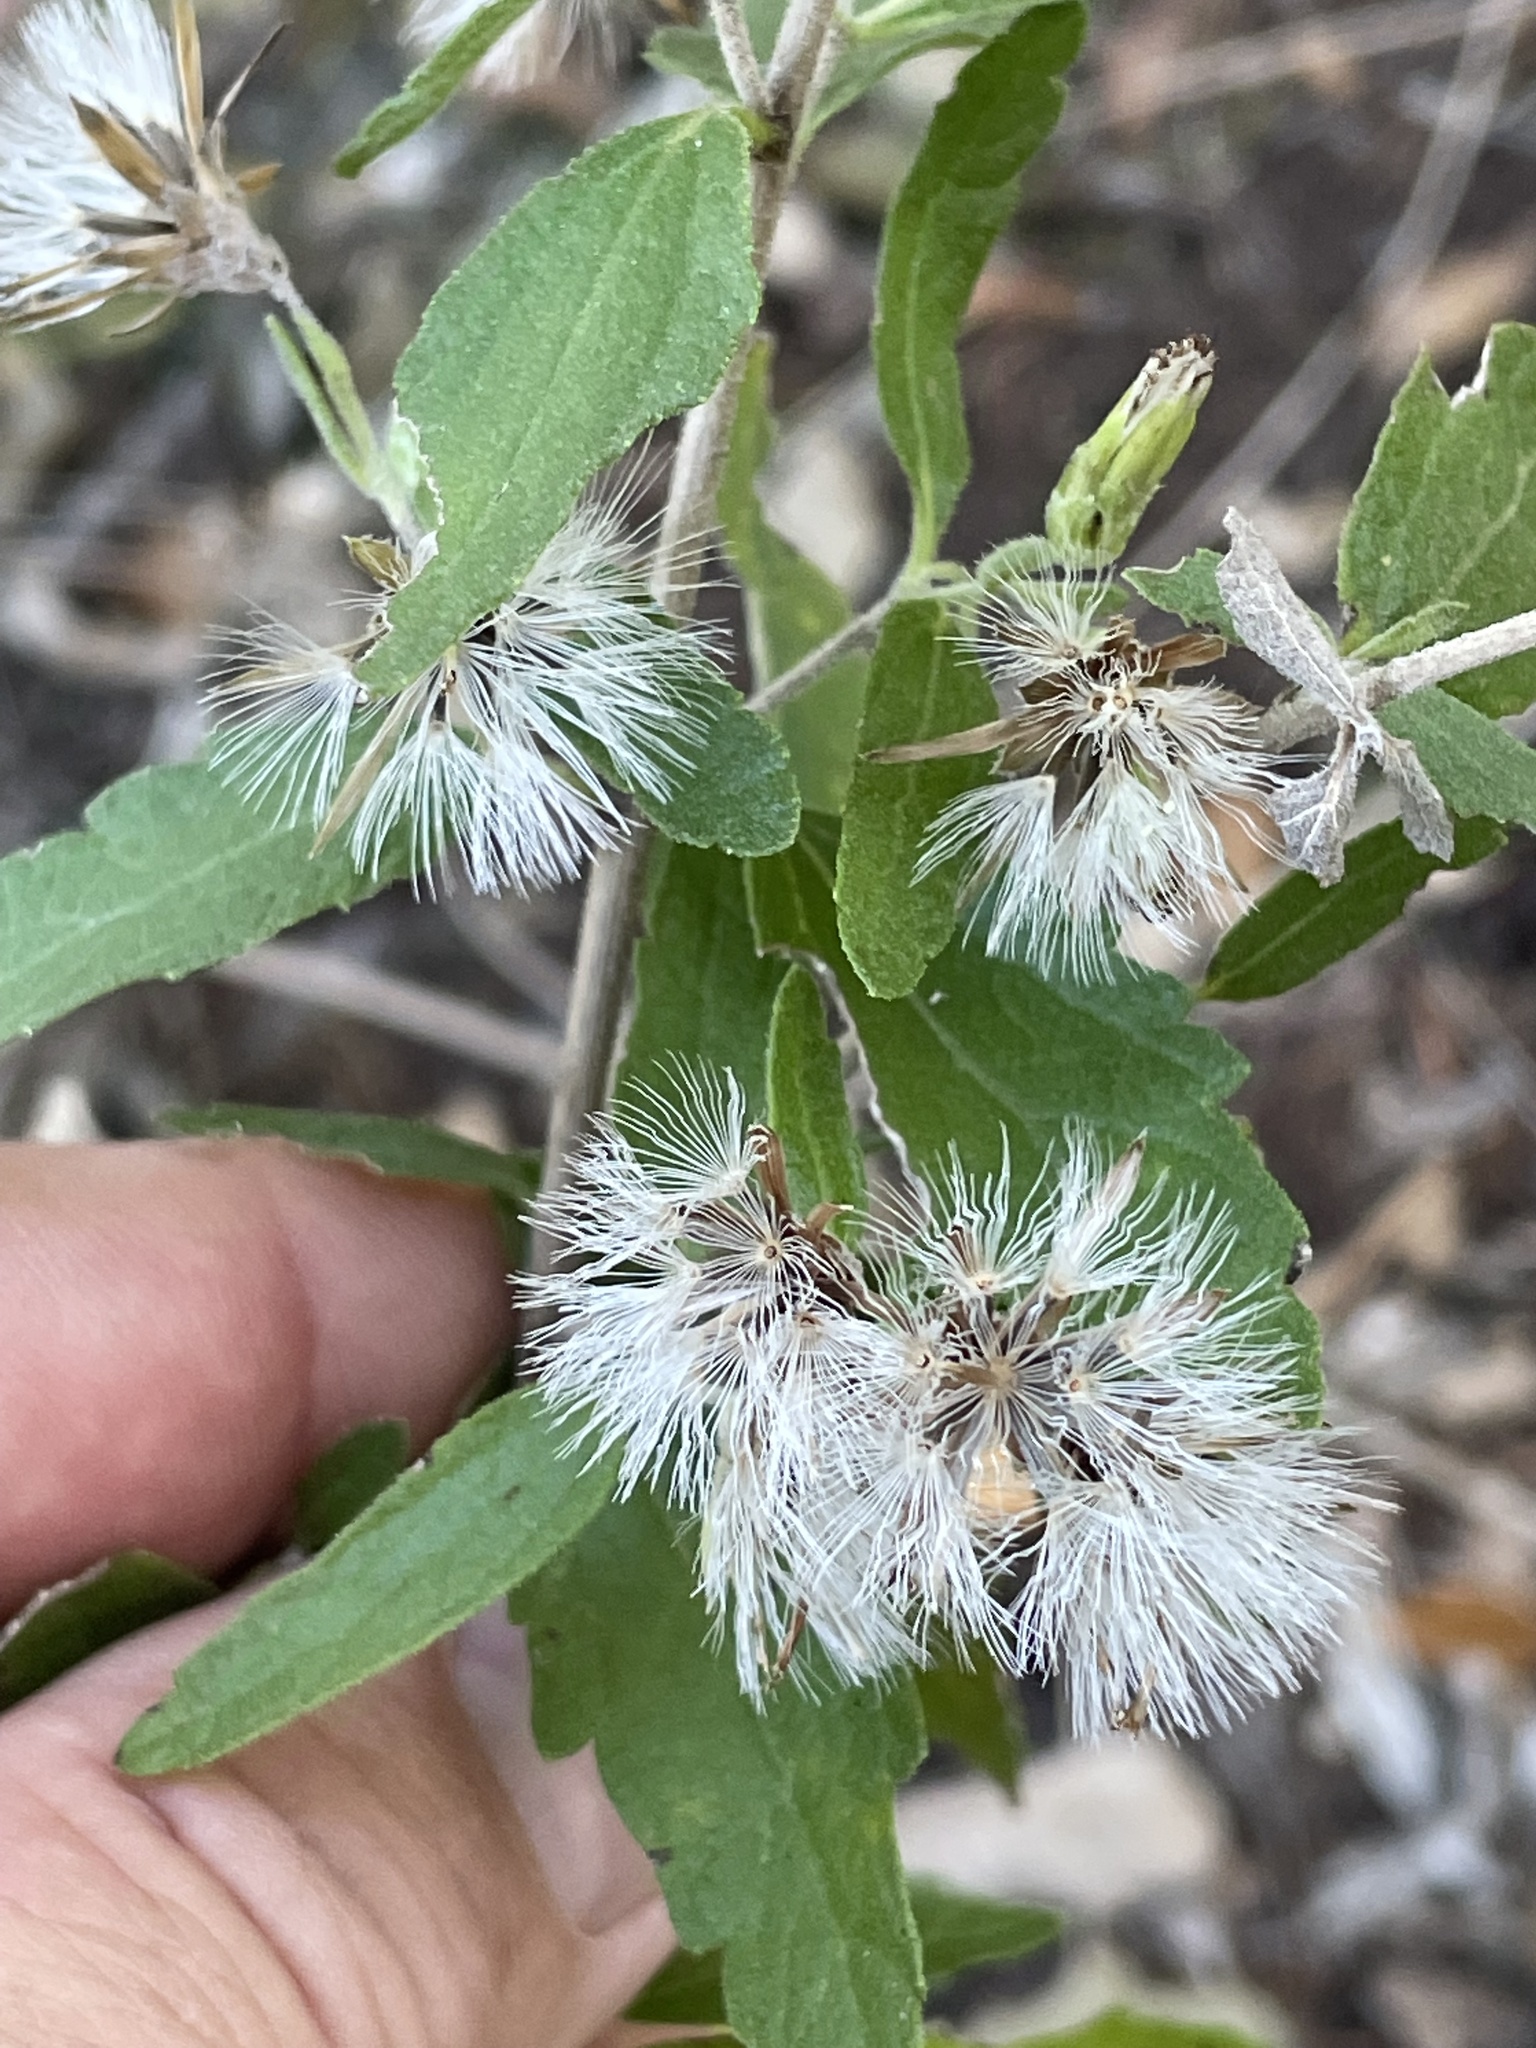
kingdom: Plantae
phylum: Tracheophyta
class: Magnoliopsida
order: Asterales
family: Asteraceae
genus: Brickellia
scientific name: Brickellia cylindracea
